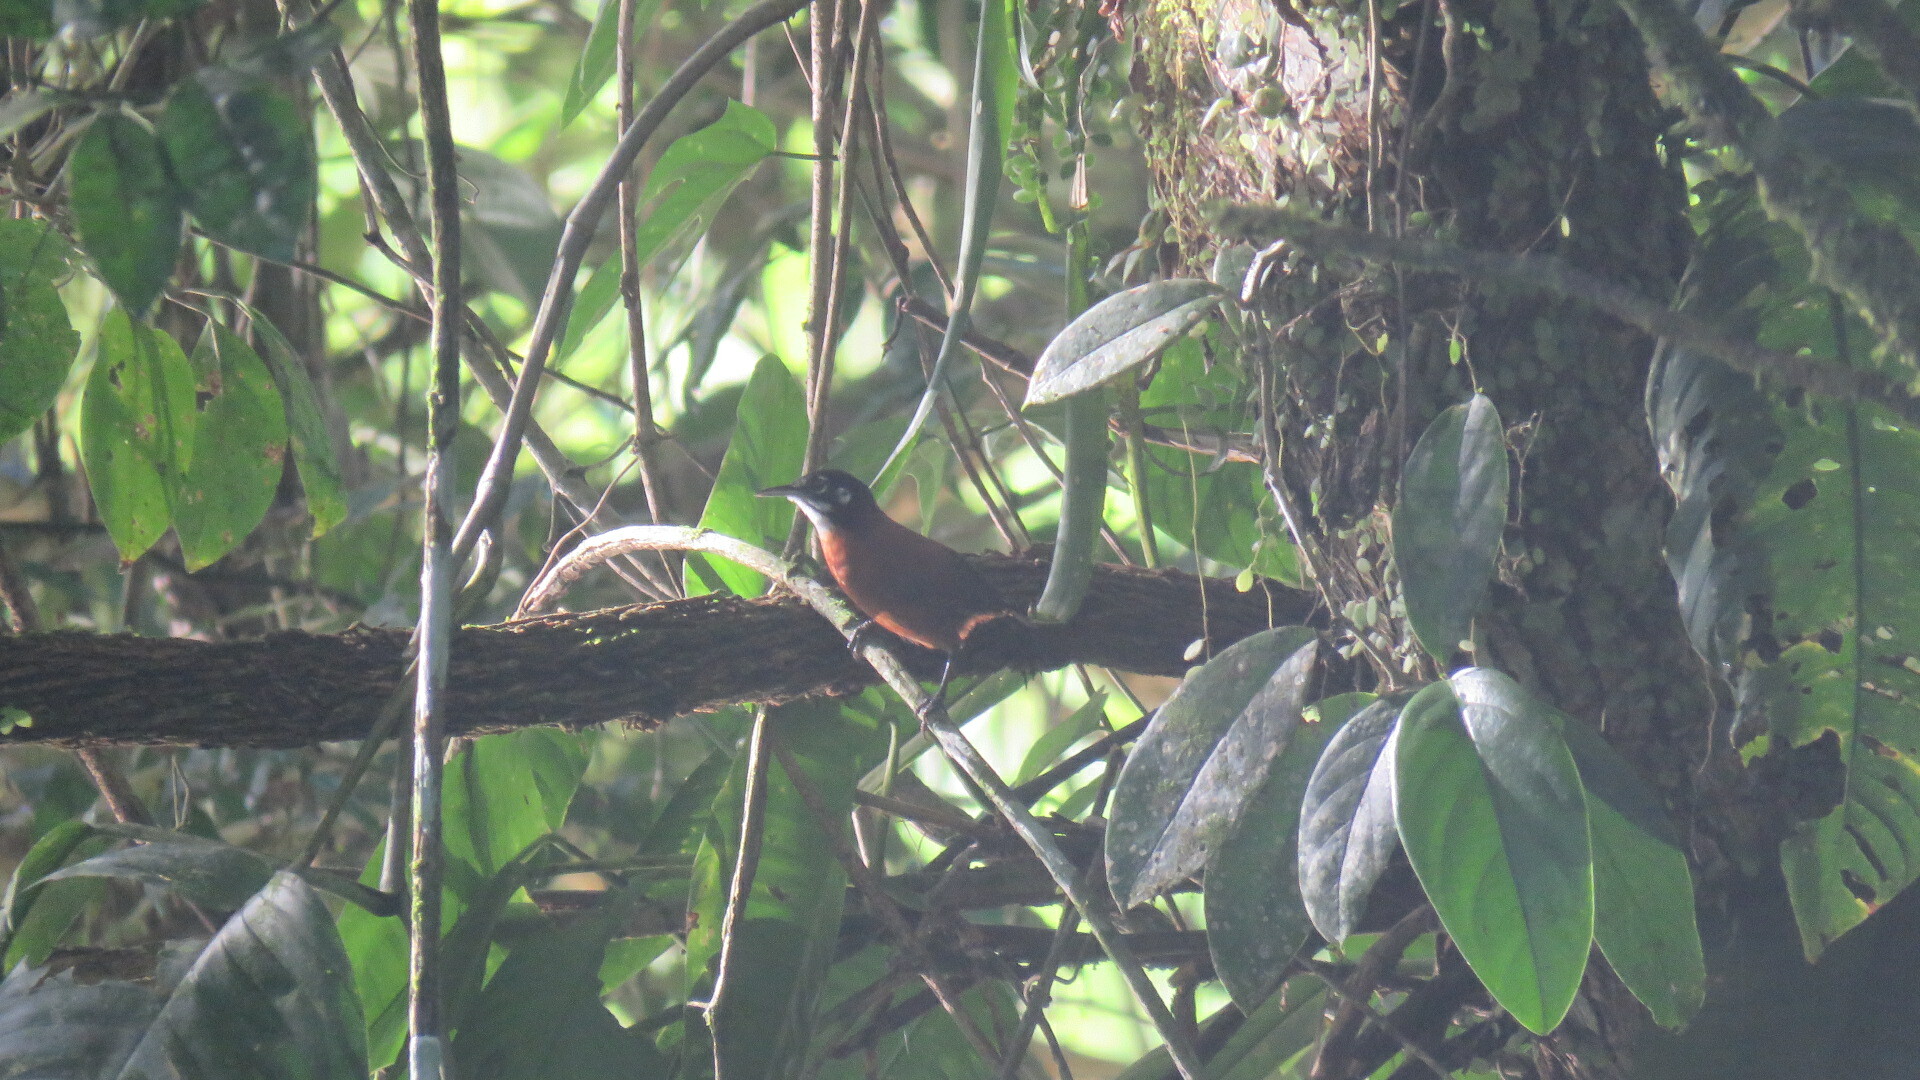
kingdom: Animalia
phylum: Chordata
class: Aves
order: Passeriformes
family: Troglodytidae
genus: Cantorchilus
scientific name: Cantorchilus nigricapillus
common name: Bay wren
